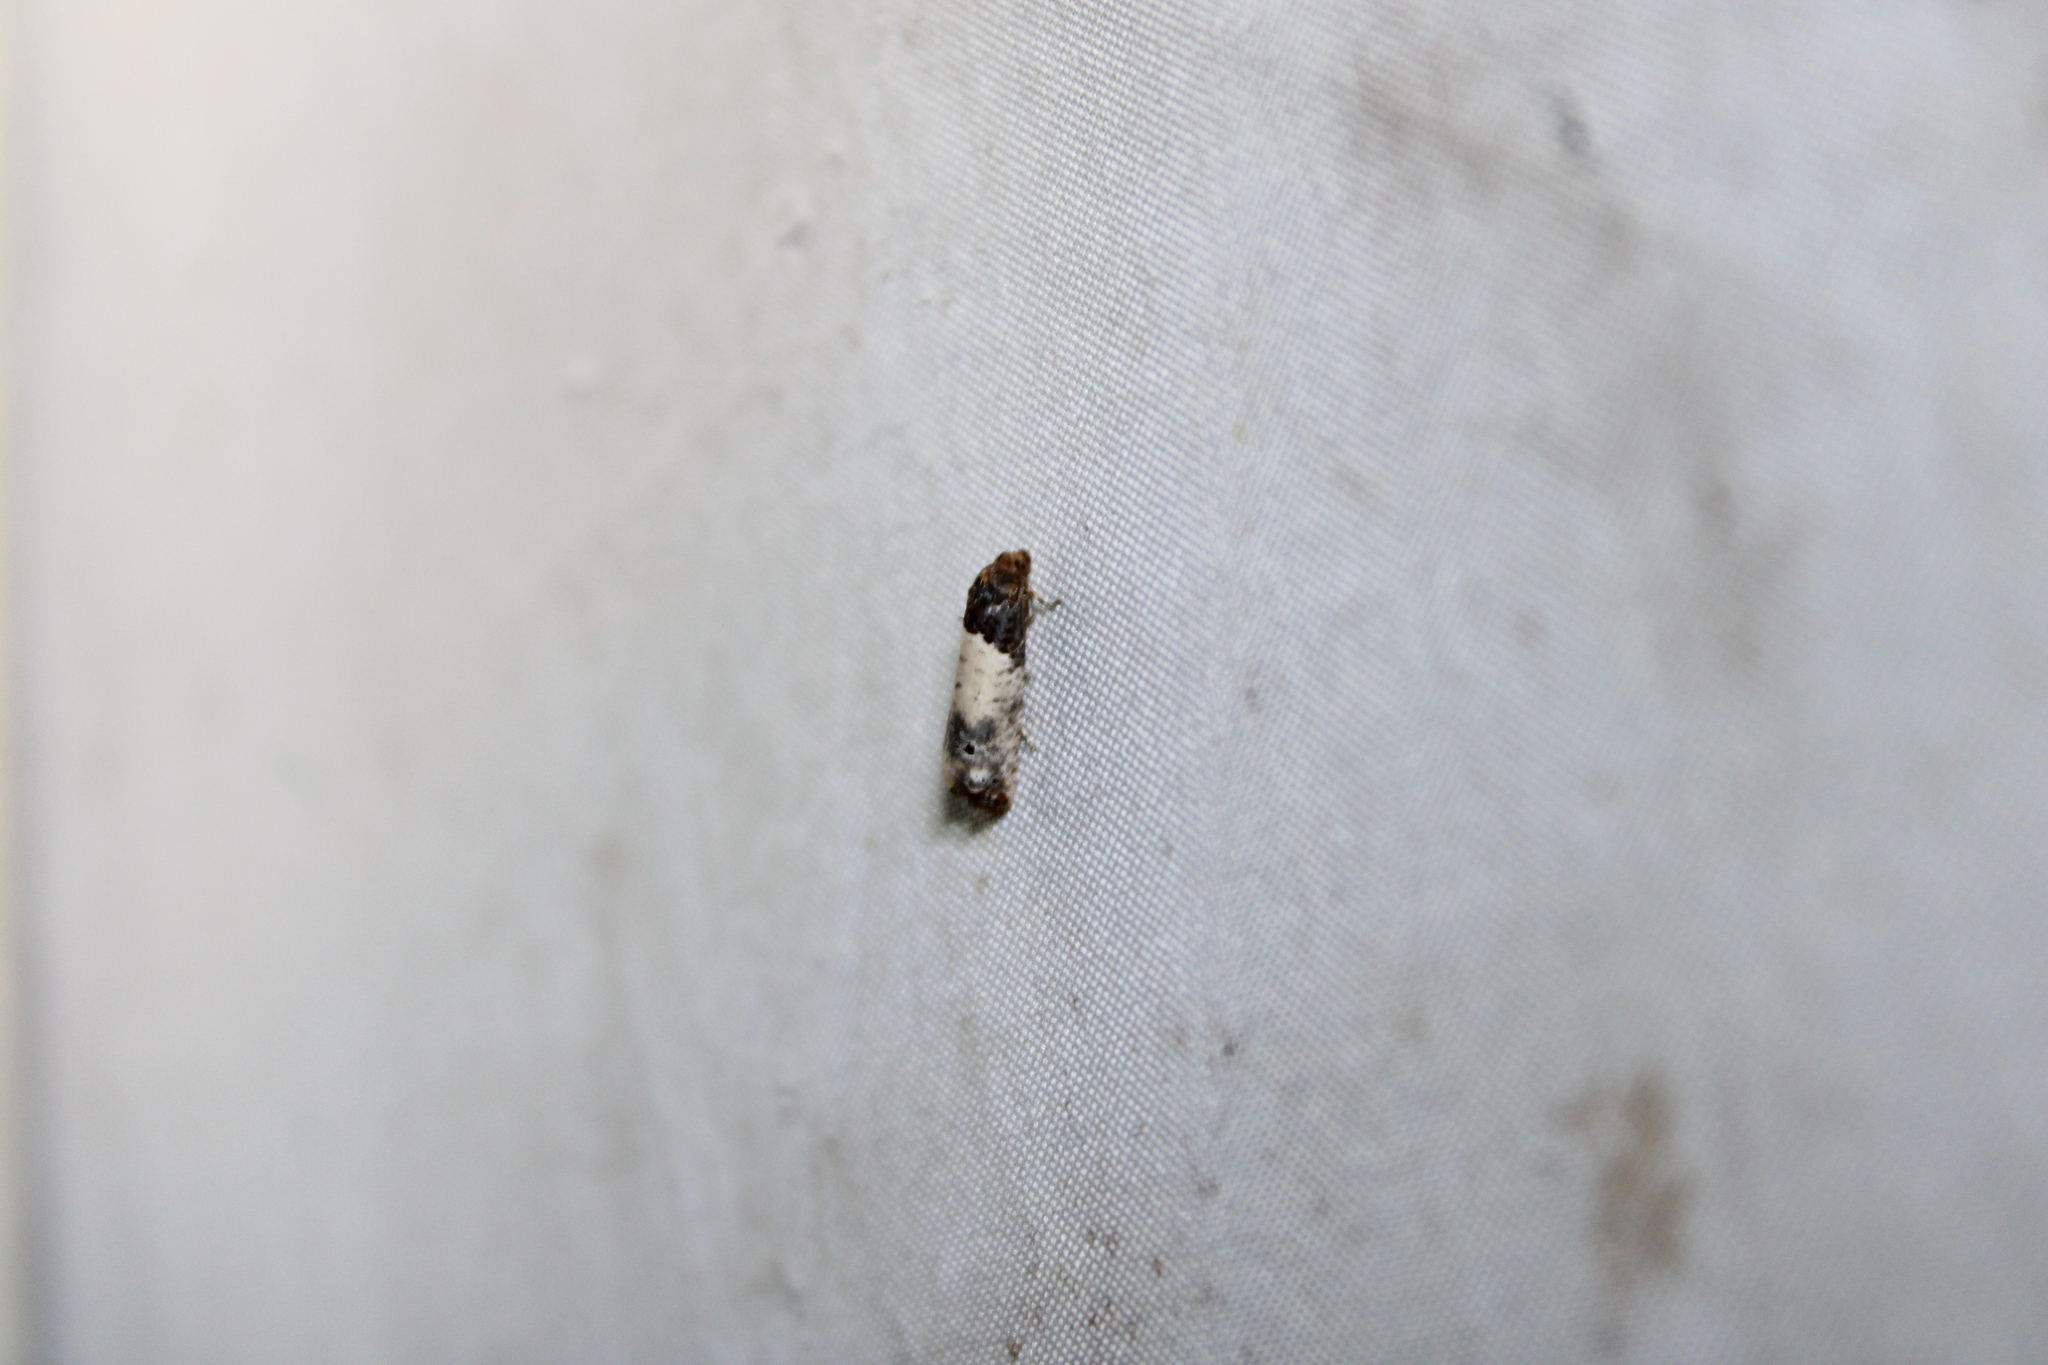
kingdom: Animalia
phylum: Arthropoda
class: Insecta
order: Lepidoptera
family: Tortricidae
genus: Epiblema
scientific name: Epiblema scudderiana
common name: Goldenrod gall moth
